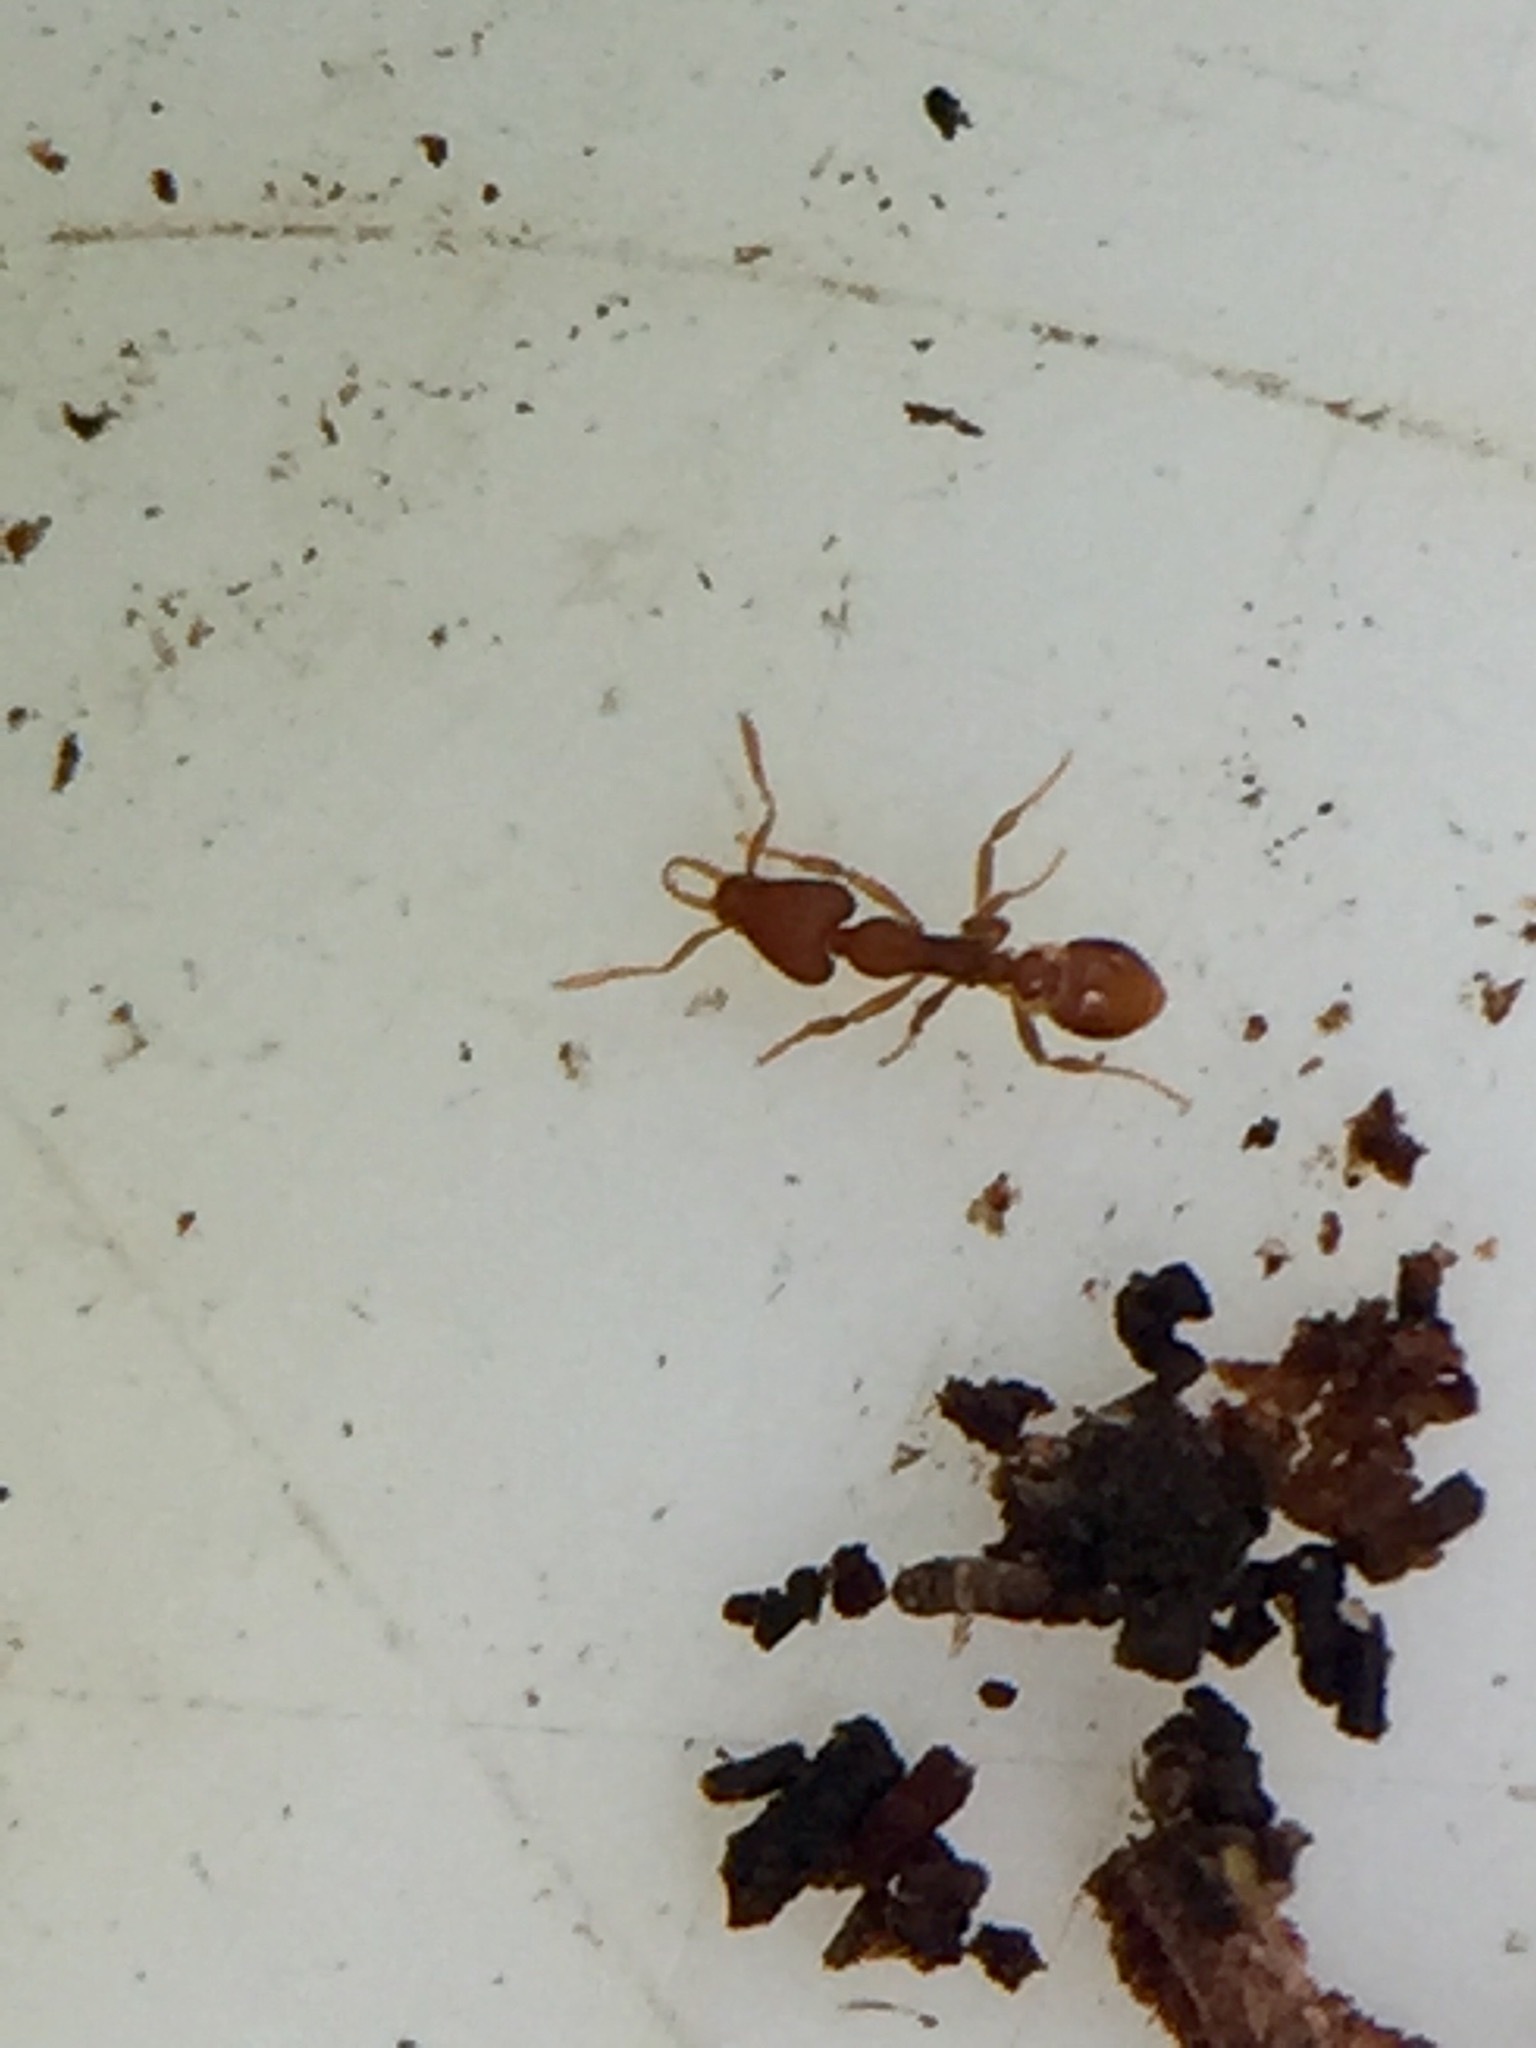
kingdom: Animalia
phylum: Arthropoda
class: Insecta
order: Hymenoptera
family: Formicidae
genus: Strumigenys
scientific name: Strumigenys perplexa
